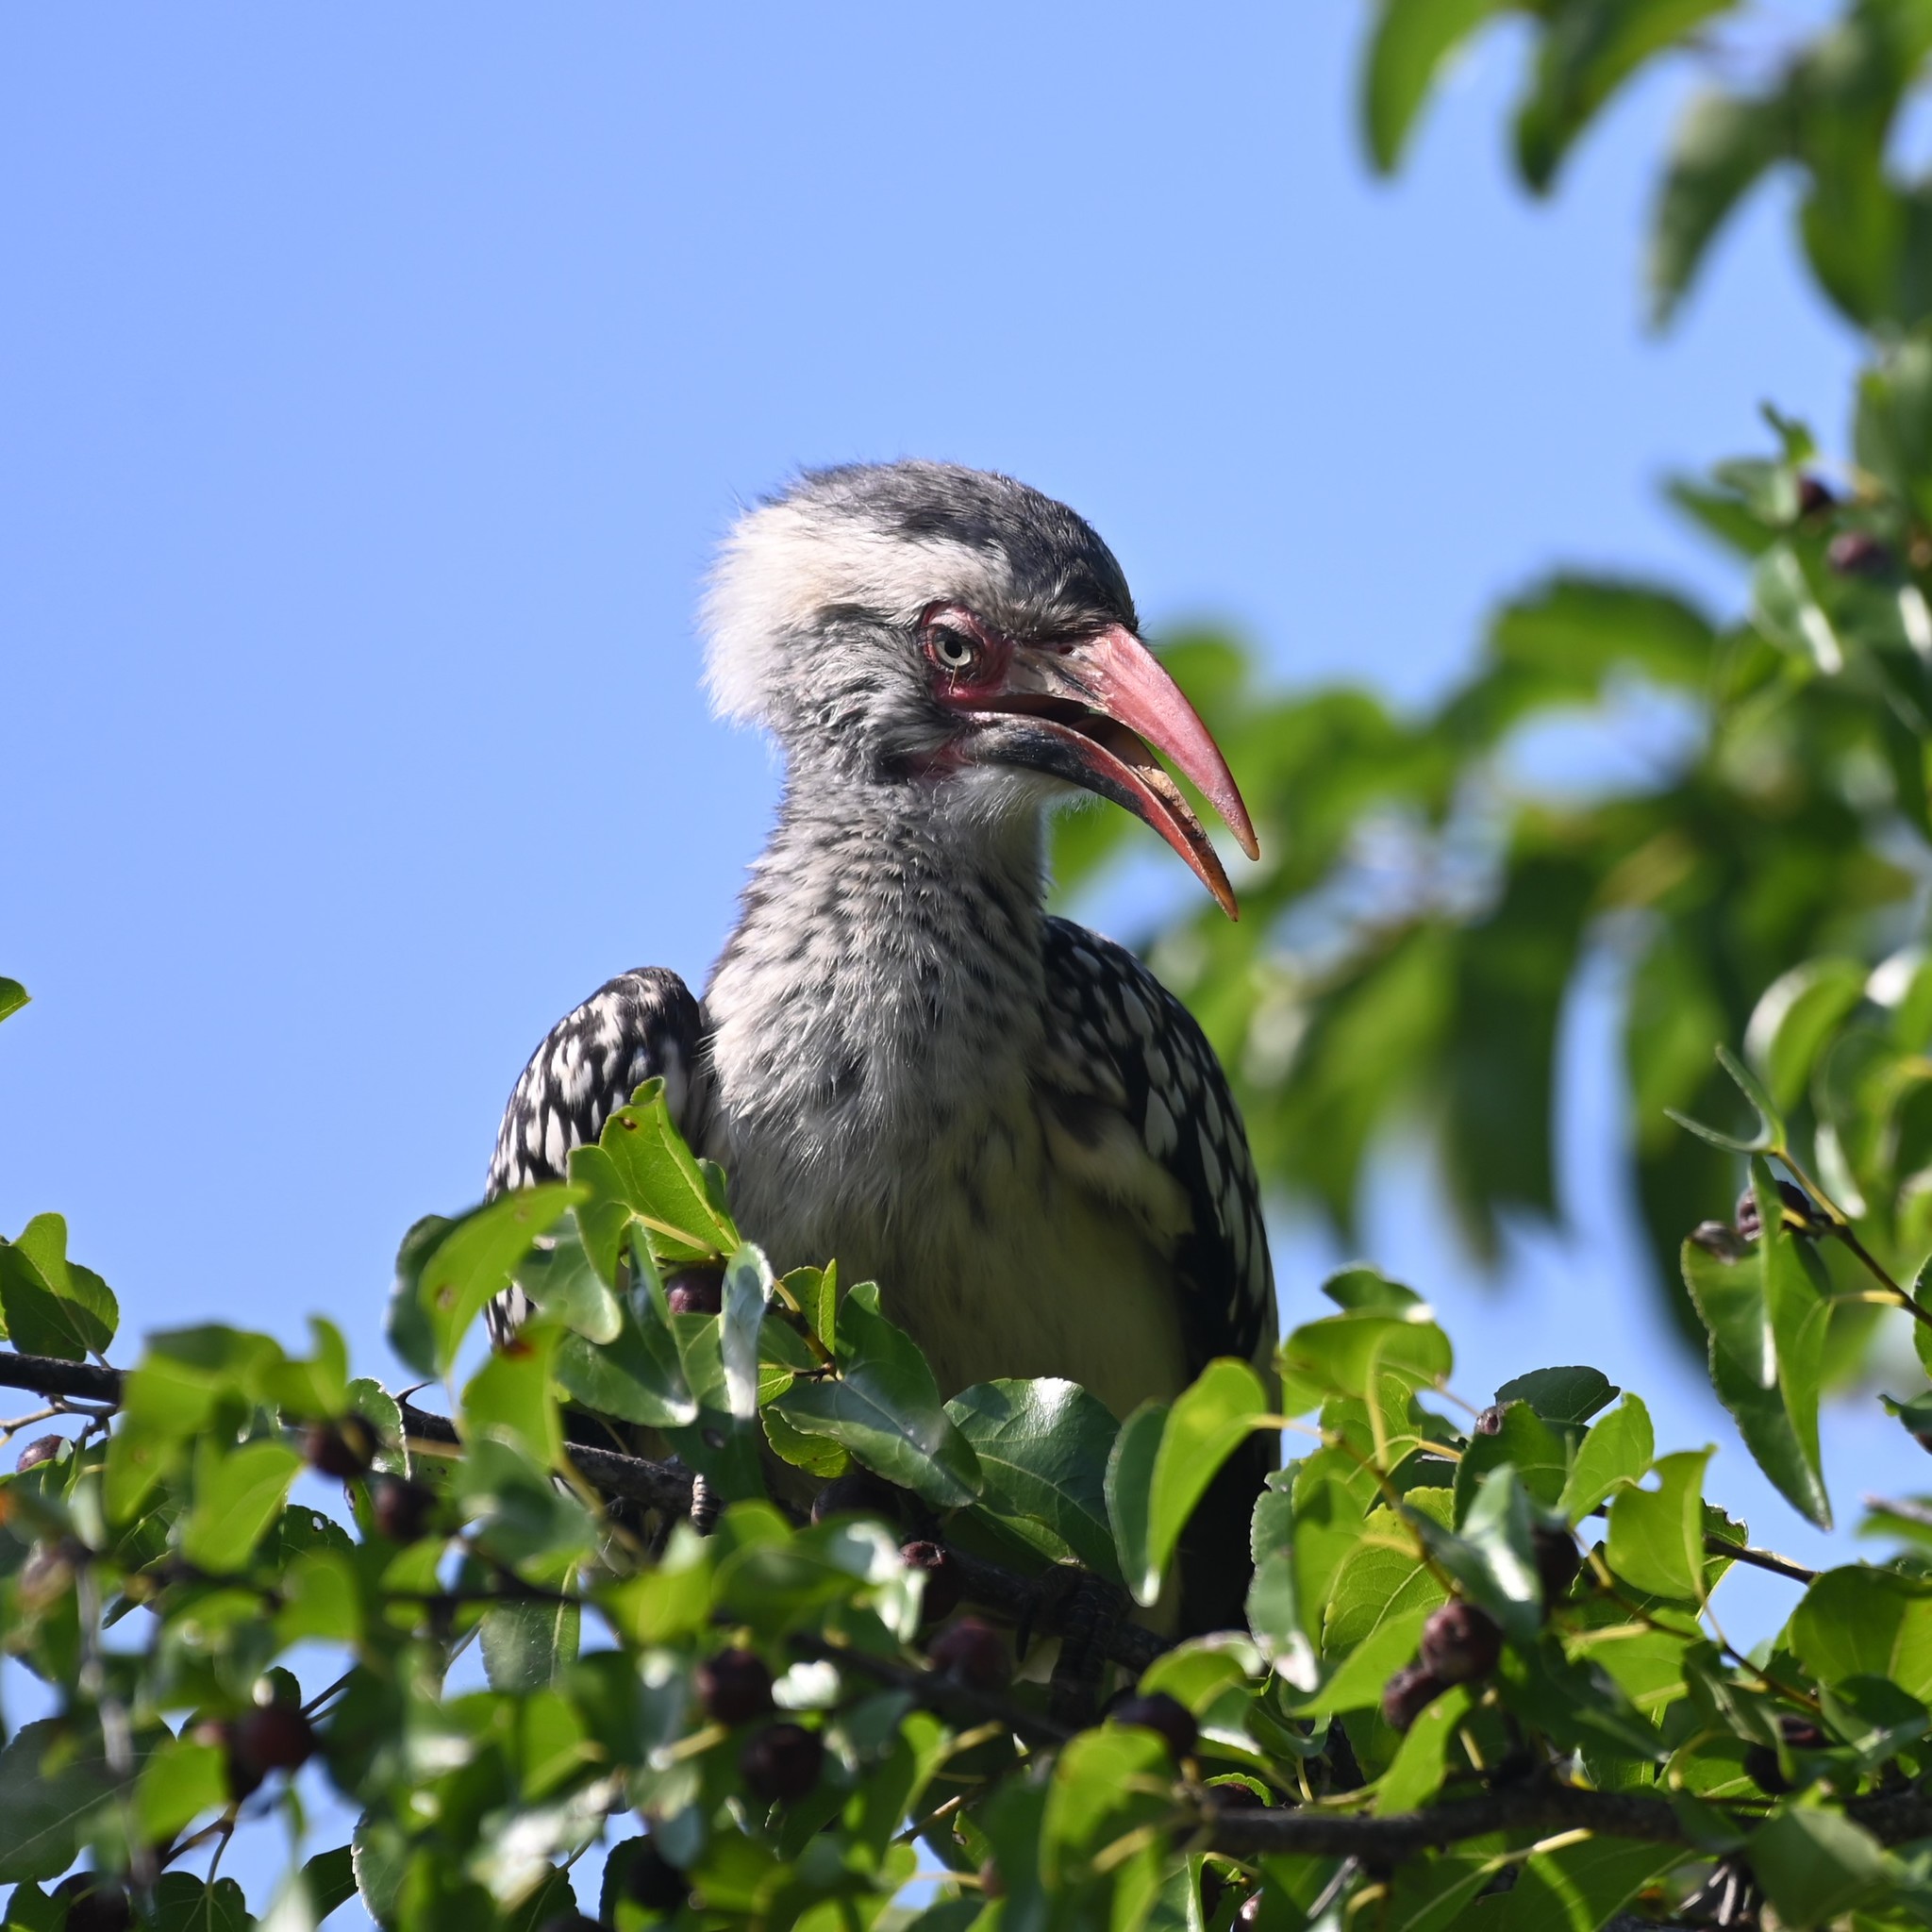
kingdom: Animalia
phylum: Chordata
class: Aves
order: Bucerotiformes
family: Bucerotidae
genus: Tockus
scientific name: Tockus rufirostris
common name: Southern red-billed hornbill
